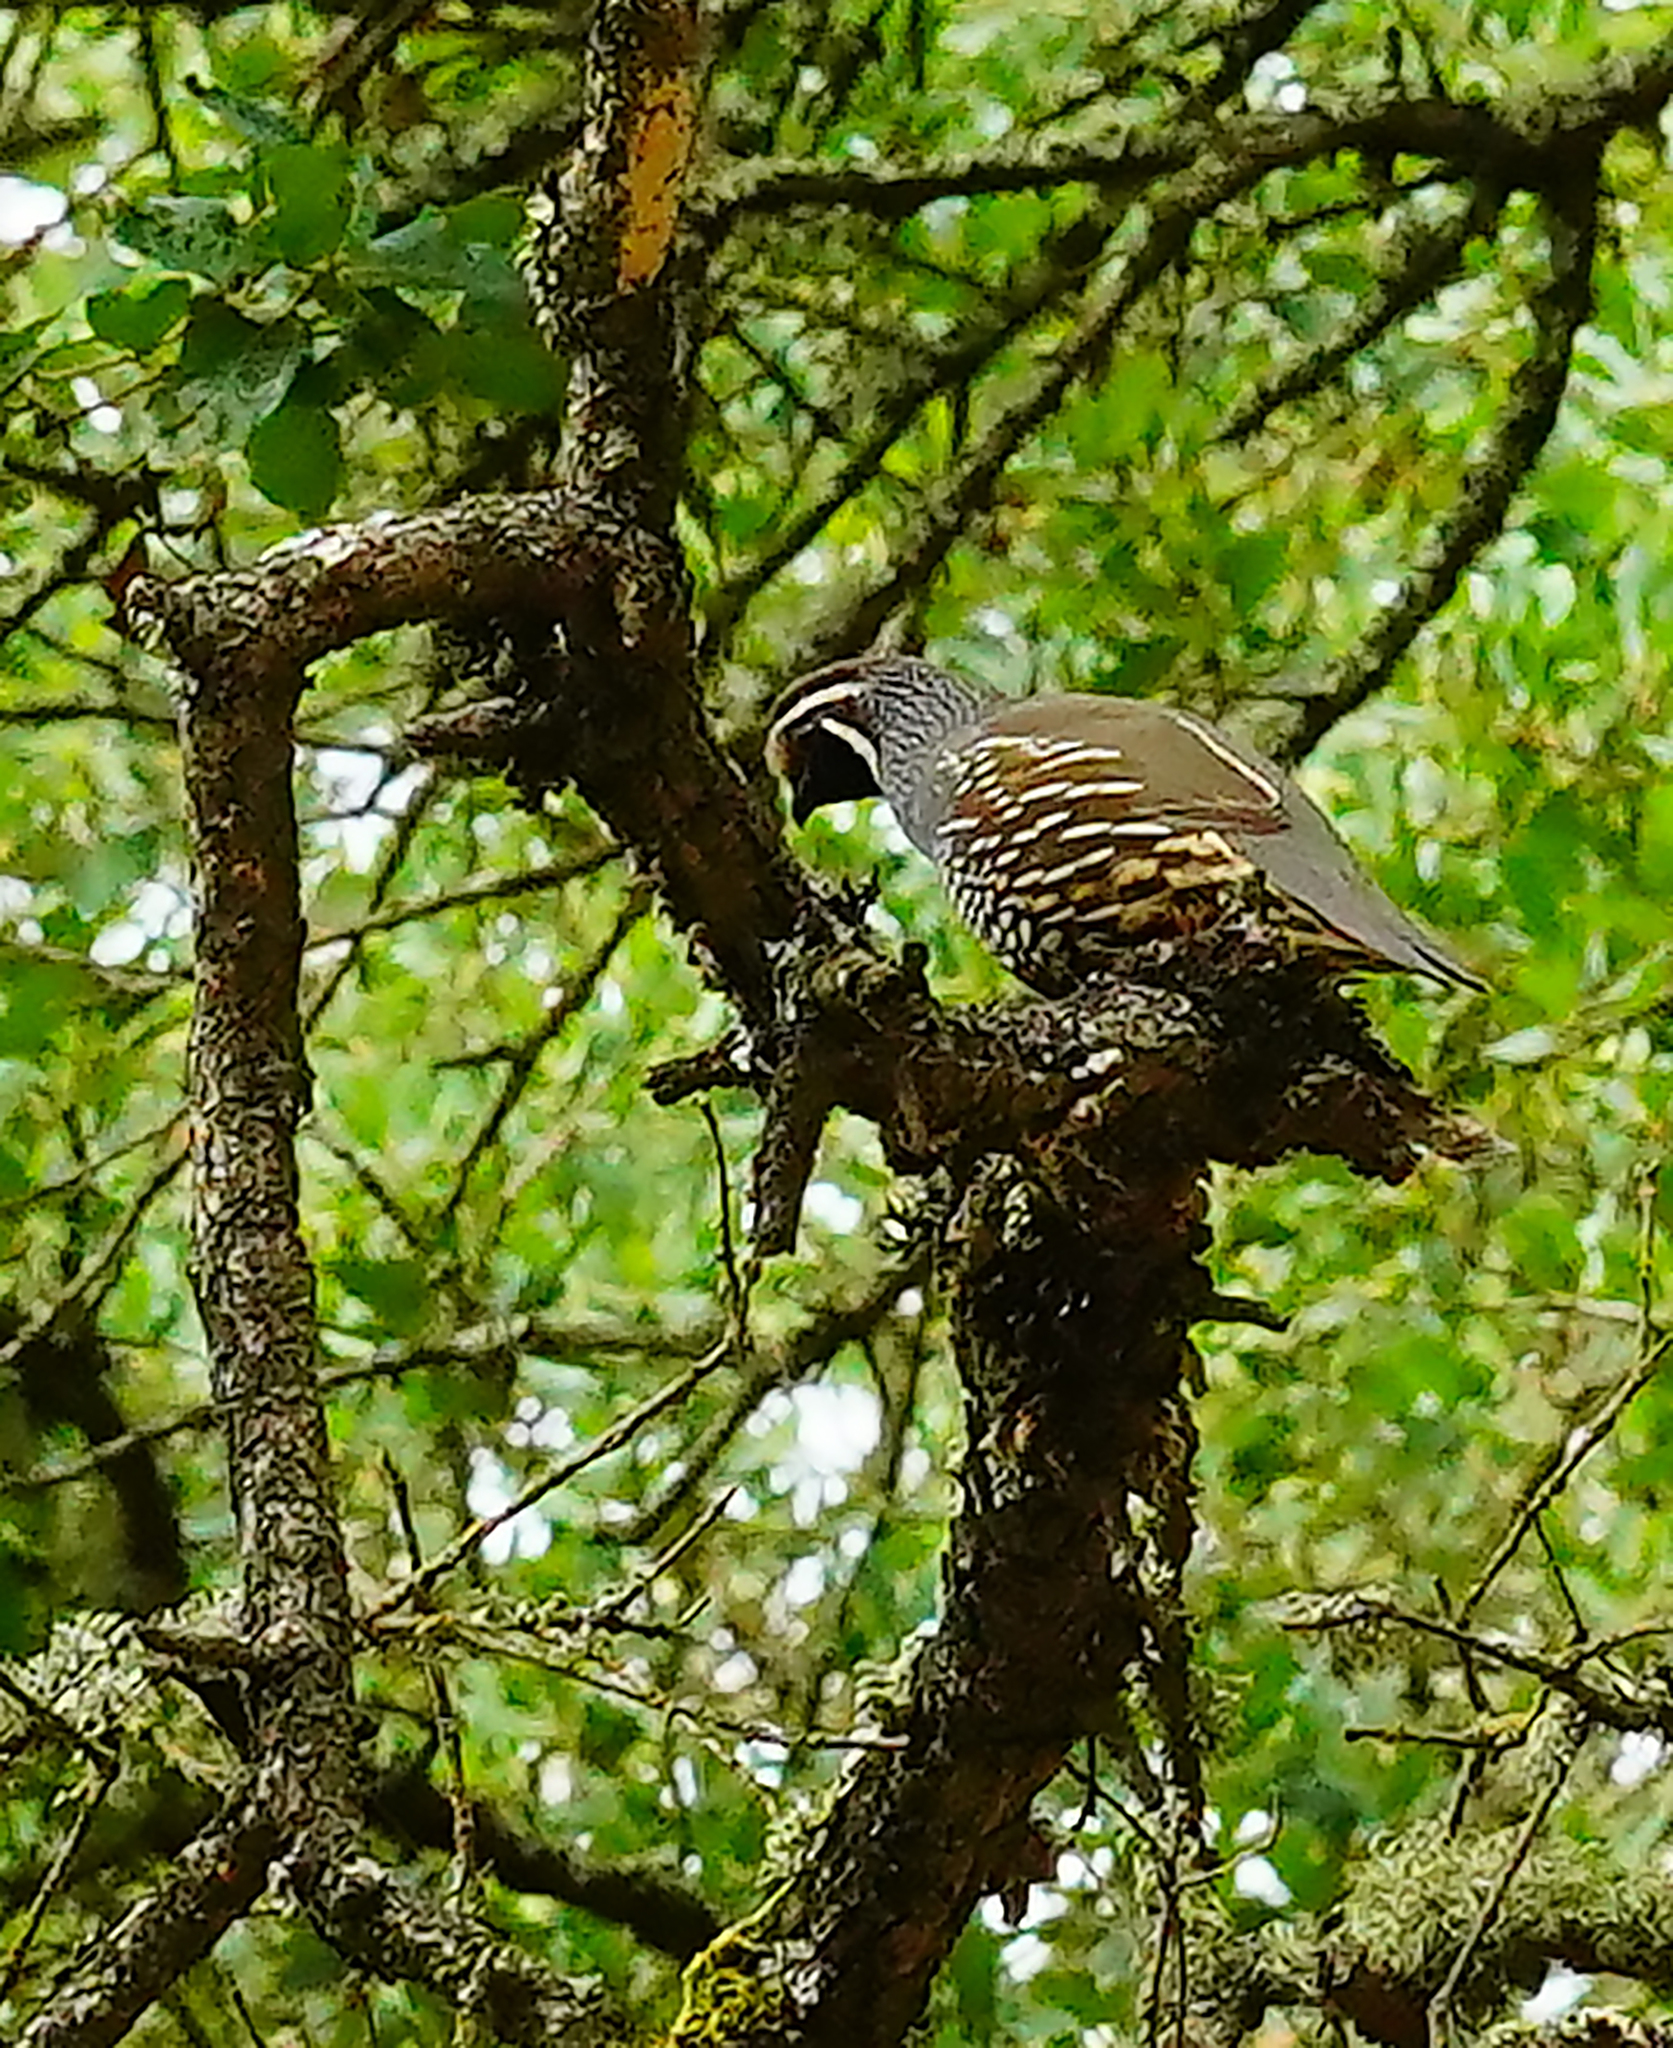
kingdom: Animalia
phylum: Chordata
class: Aves
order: Galliformes
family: Odontophoridae
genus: Callipepla
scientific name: Callipepla californica
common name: California quail
